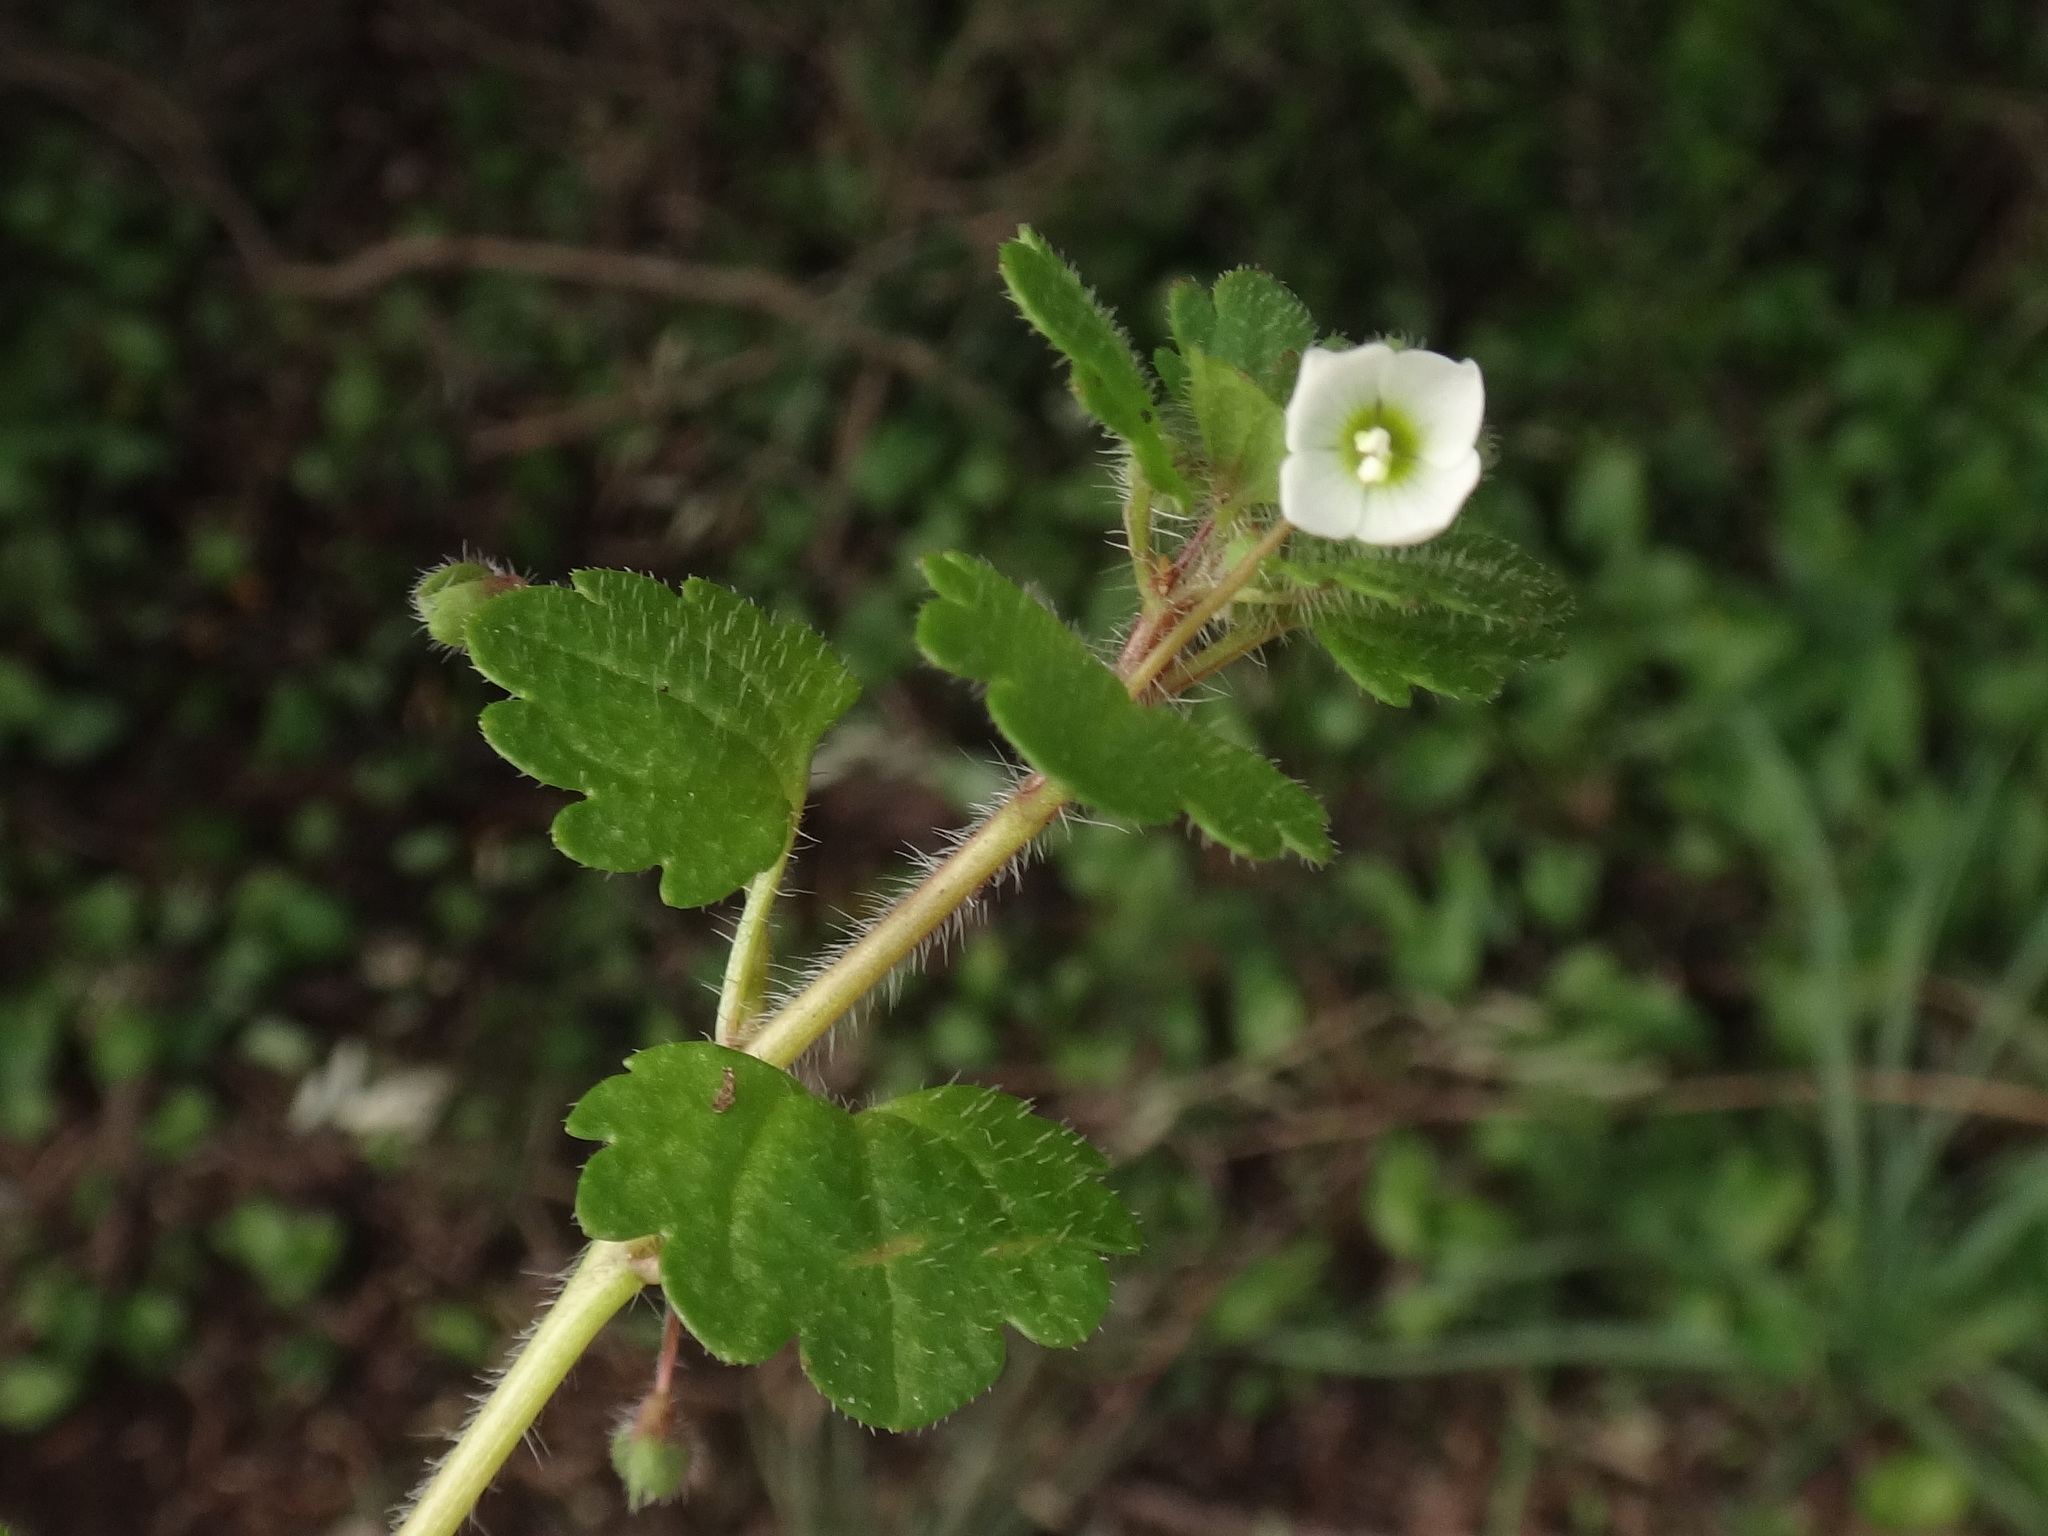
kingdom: Plantae
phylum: Tracheophyta
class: Magnoliopsida
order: Lamiales
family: Plantaginaceae
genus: Veronica
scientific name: Veronica cymbalaria
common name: Pale speedwell
